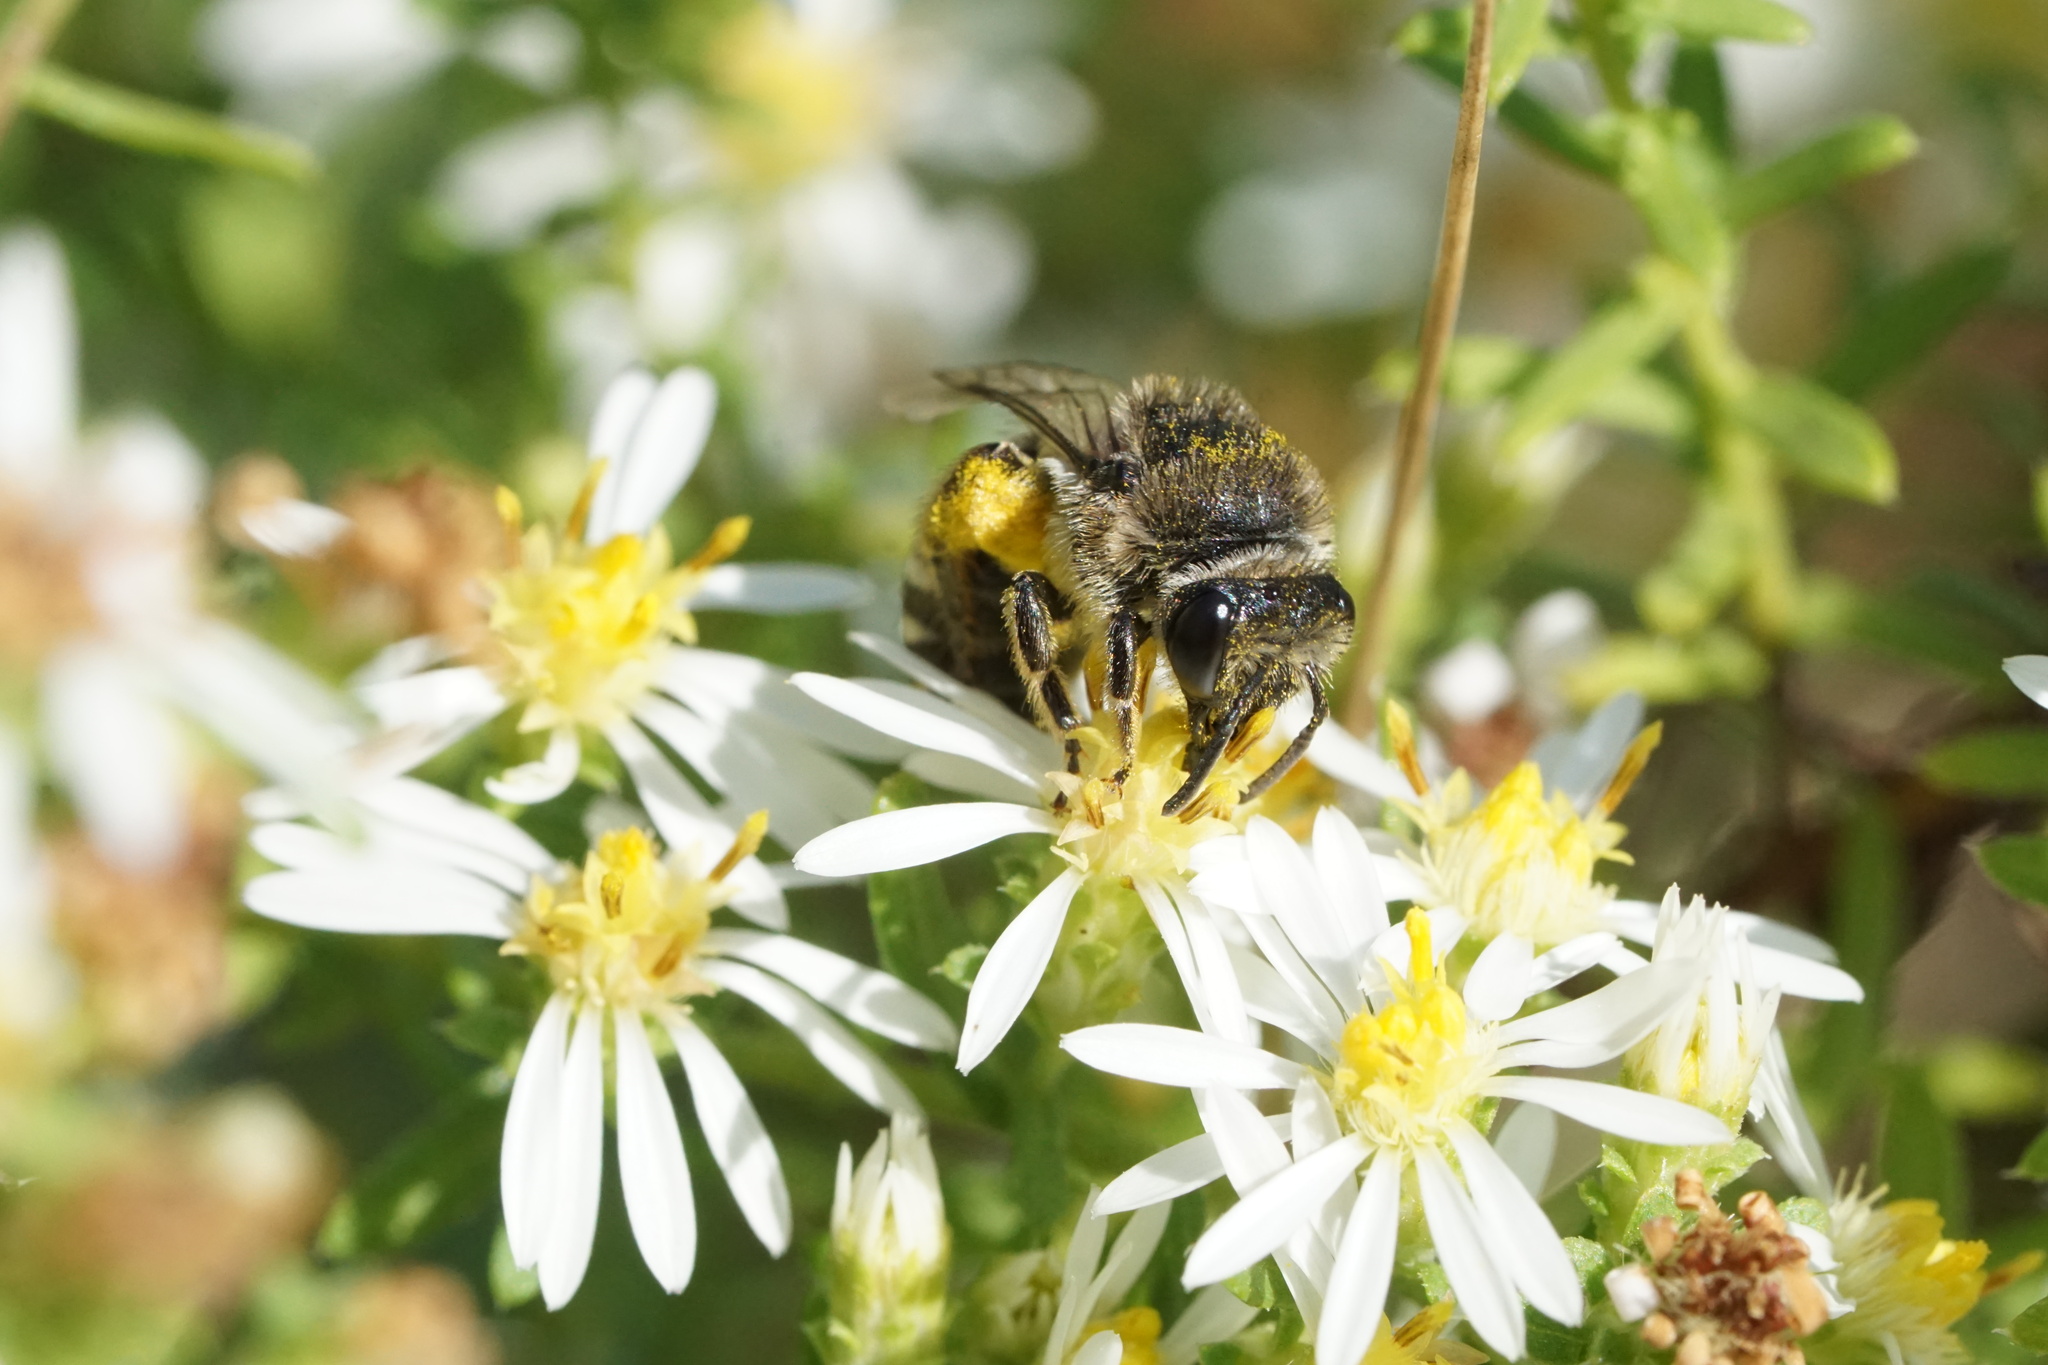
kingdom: Animalia
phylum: Arthropoda
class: Insecta
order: Hymenoptera
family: Colletidae
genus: Colletes
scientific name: Colletes simulans
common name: Spine-shouldered cellophane bee
